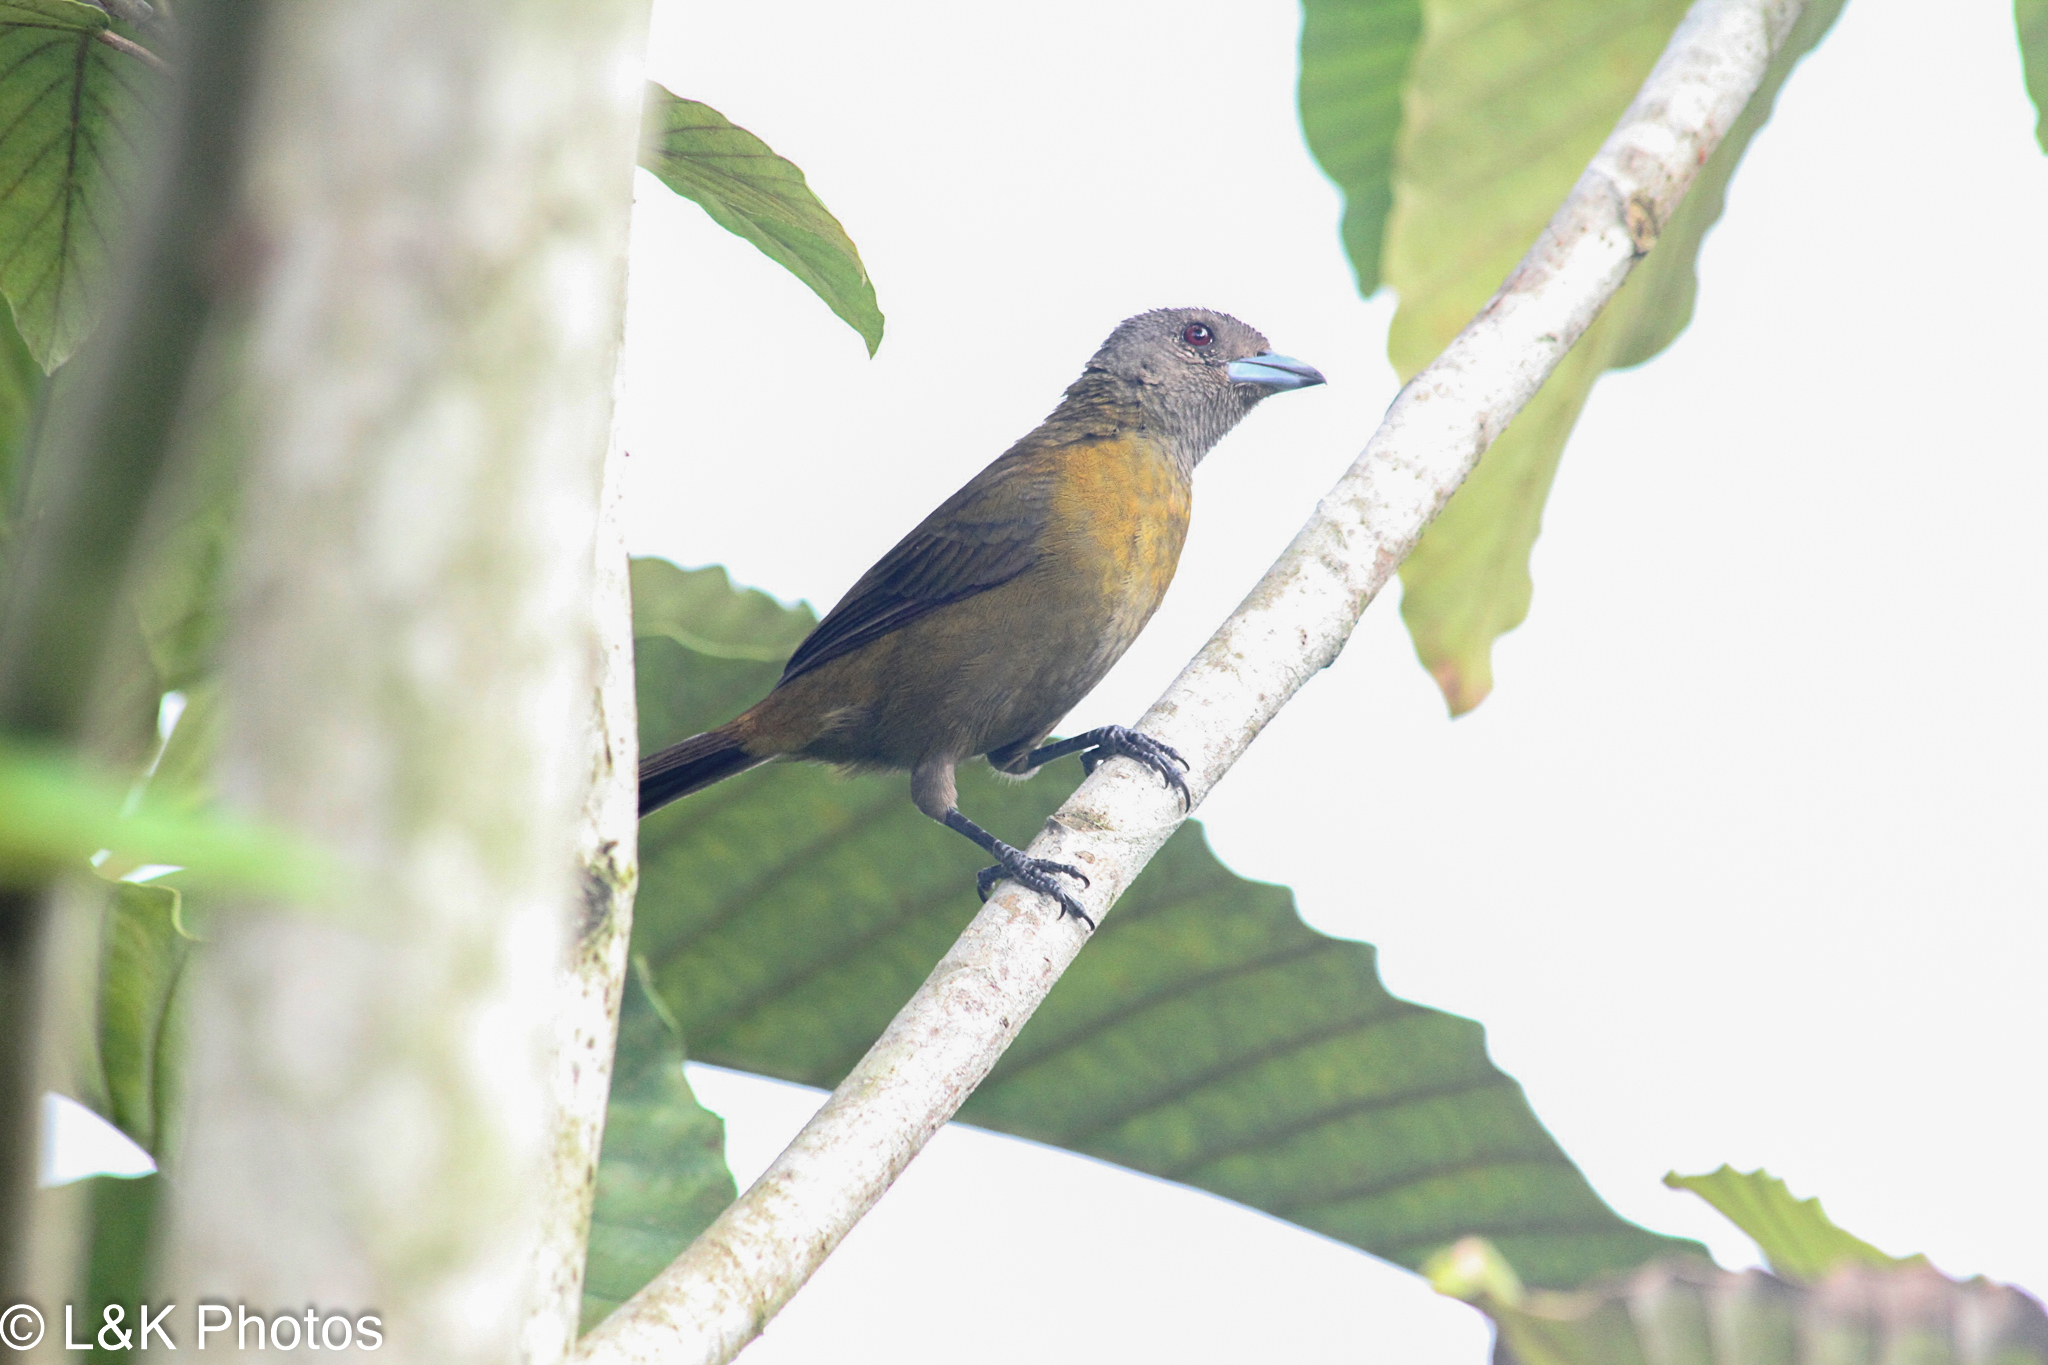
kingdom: Animalia
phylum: Chordata
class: Aves
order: Passeriformes
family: Thraupidae
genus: Ramphocelus
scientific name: Ramphocelus passerinii
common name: Passerini's tanager
